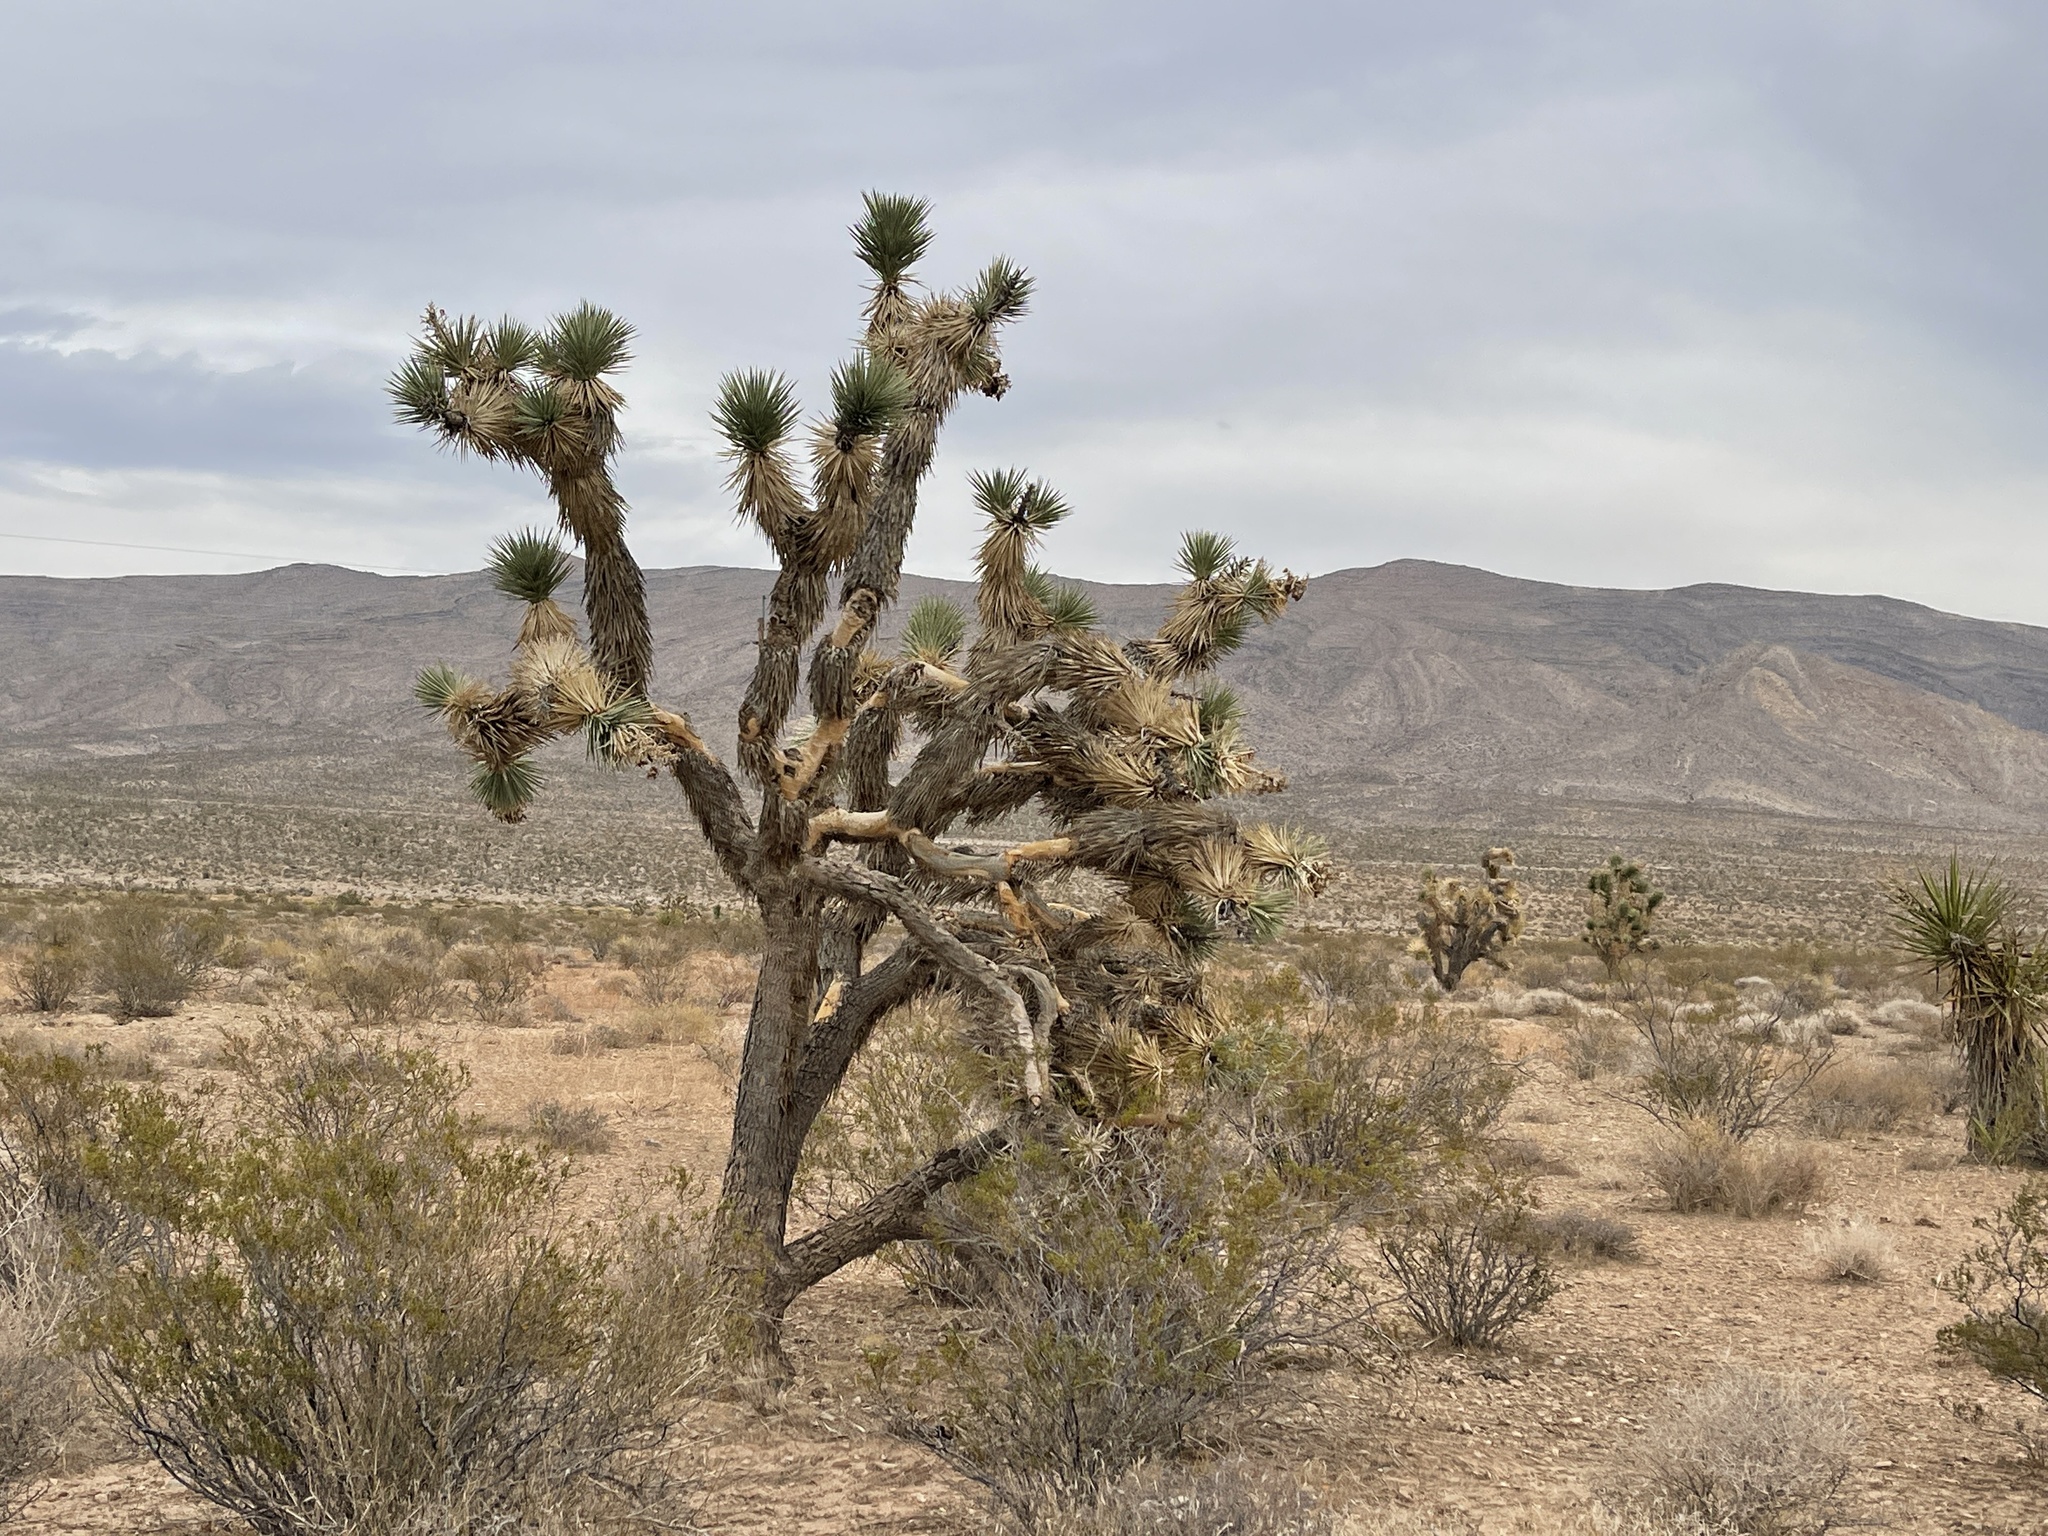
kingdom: Plantae
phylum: Tracheophyta
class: Liliopsida
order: Asparagales
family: Asparagaceae
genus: Yucca
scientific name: Yucca brevifolia
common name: Joshua tree
